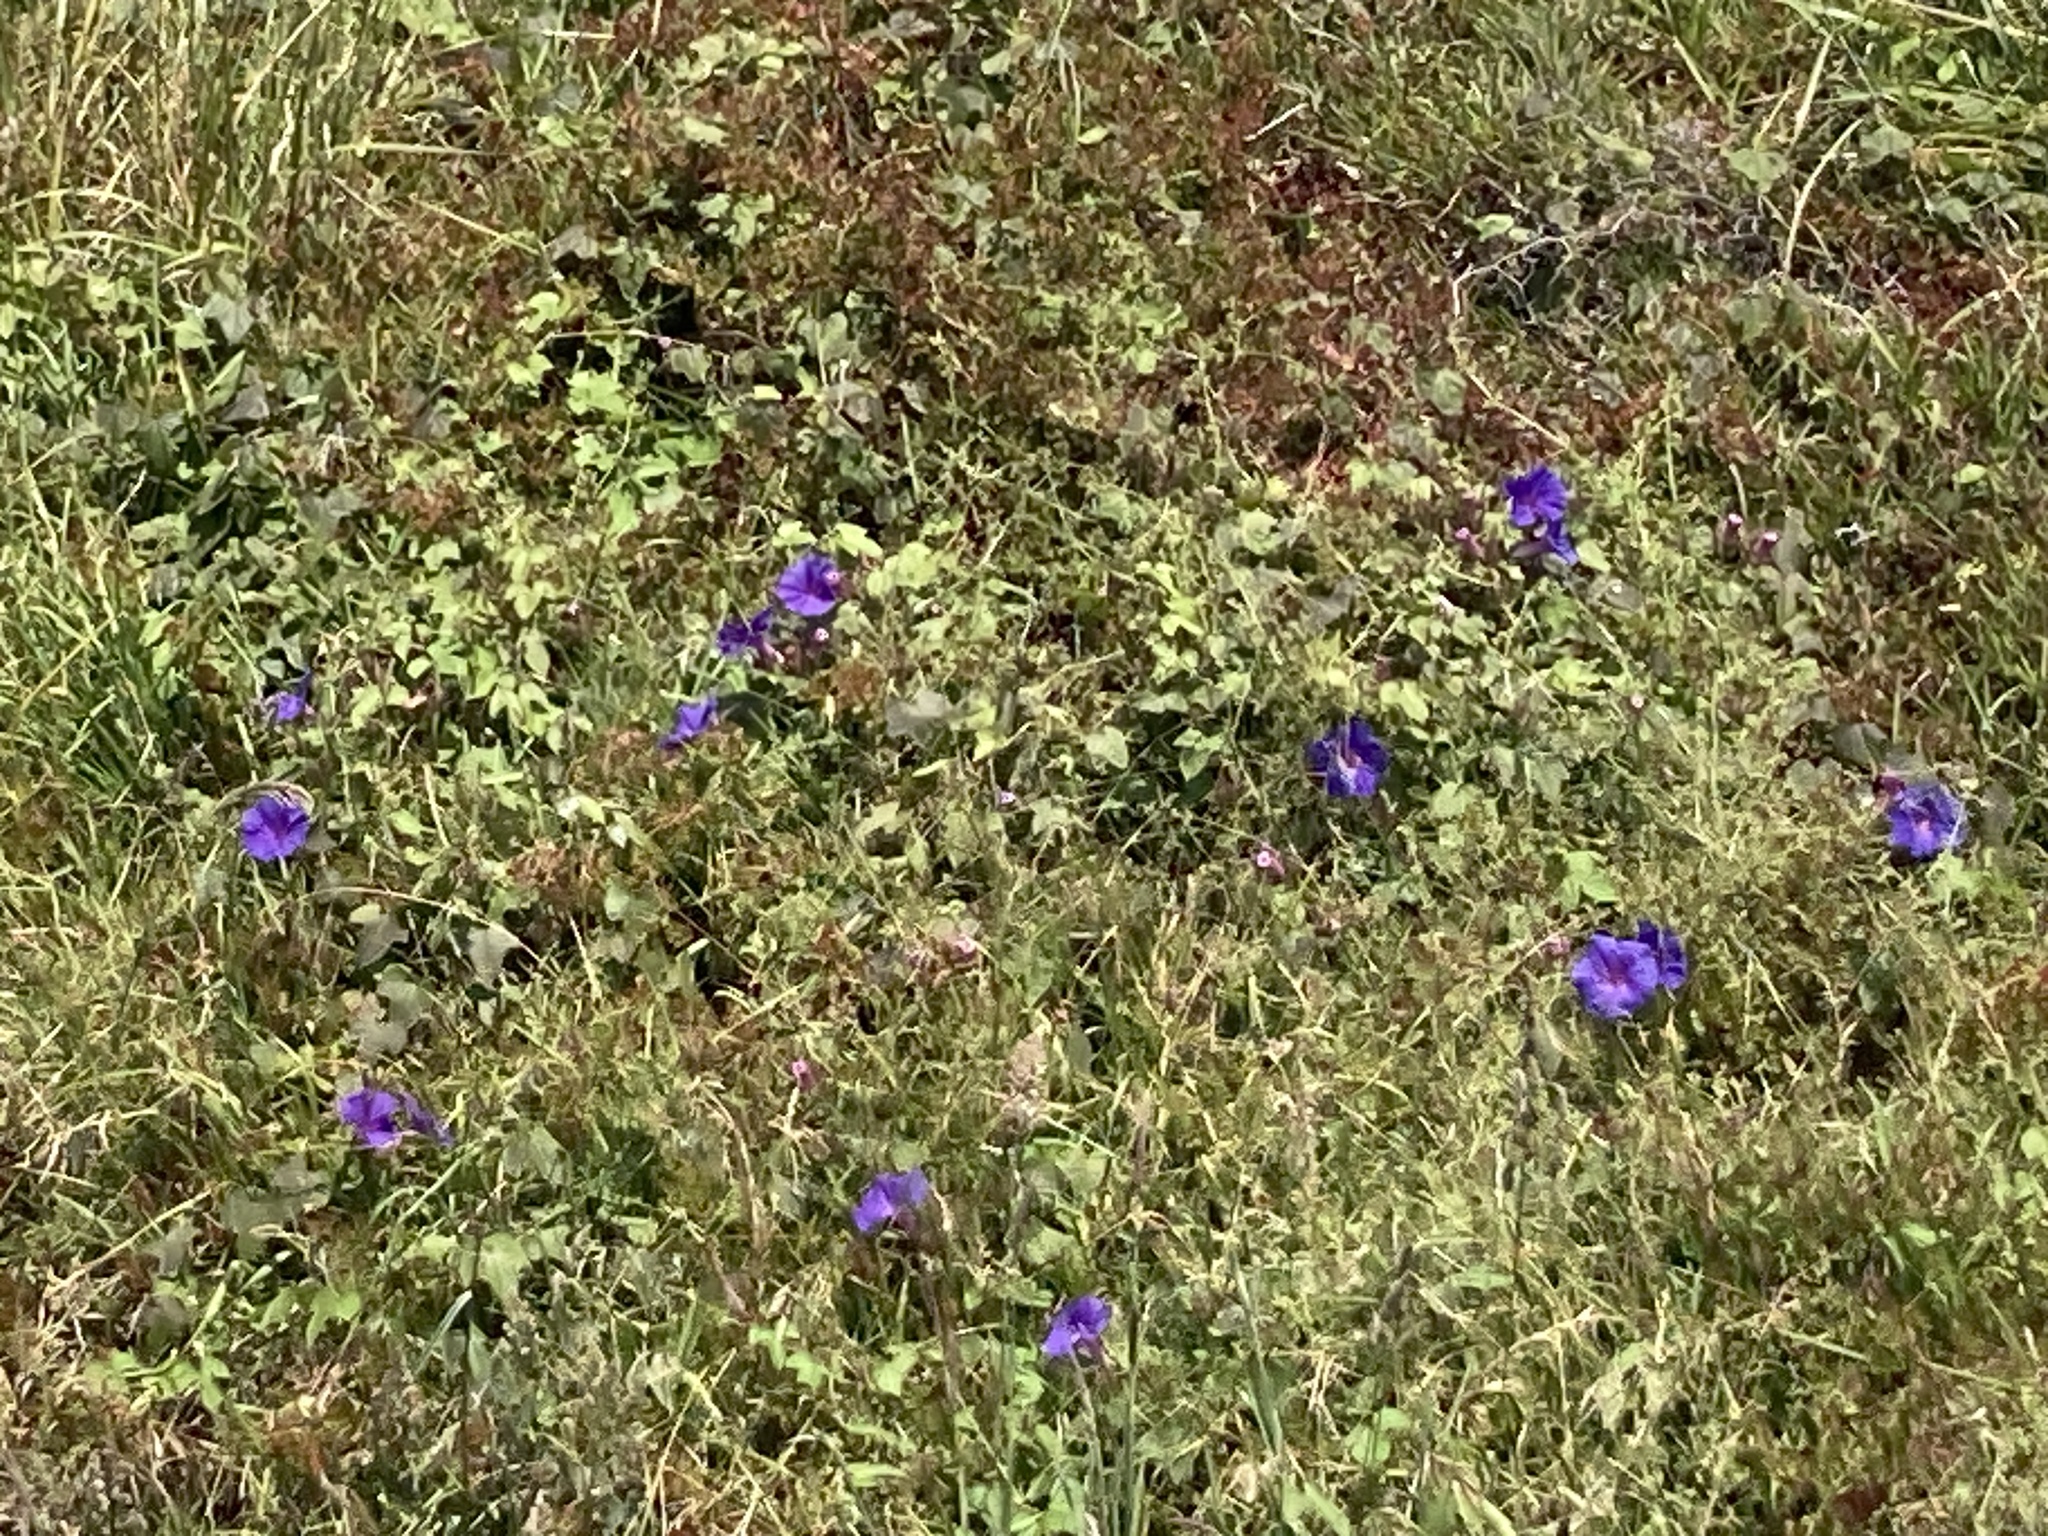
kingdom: Plantae
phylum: Tracheophyta
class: Magnoliopsida
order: Solanales
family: Convolvulaceae
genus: Ipomoea
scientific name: Ipomoea indica
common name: Blue dawnflower
